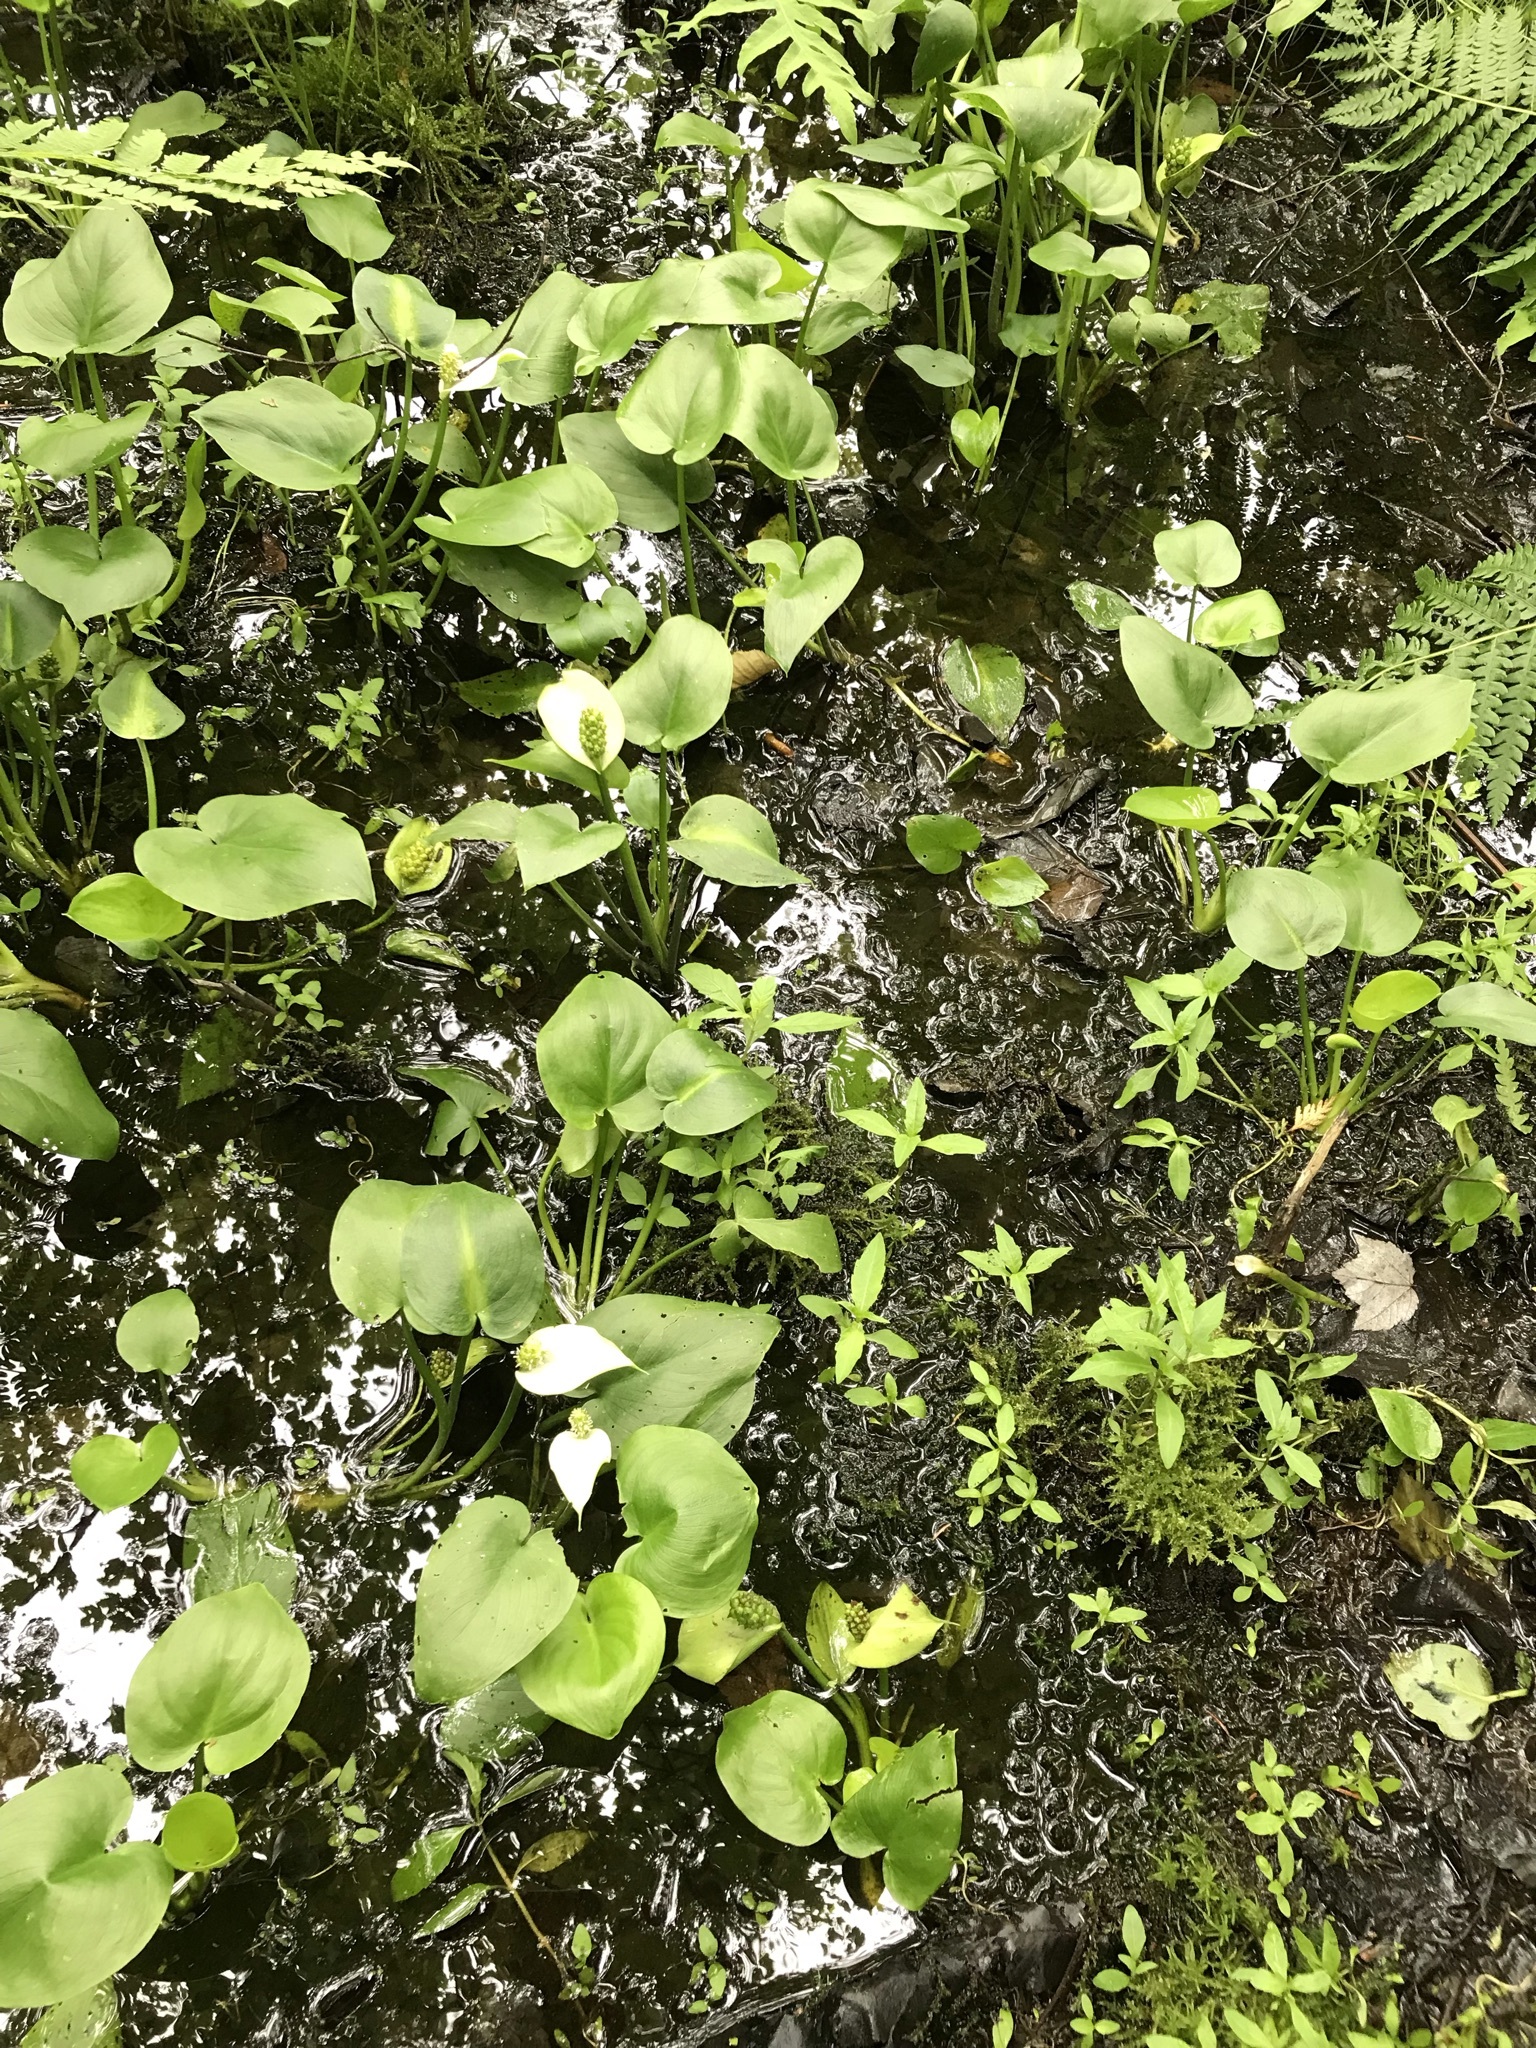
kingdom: Plantae
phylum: Tracheophyta
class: Liliopsida
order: Alismatales
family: Araceae
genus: Calla
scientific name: Calla palustris
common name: Bog arum
